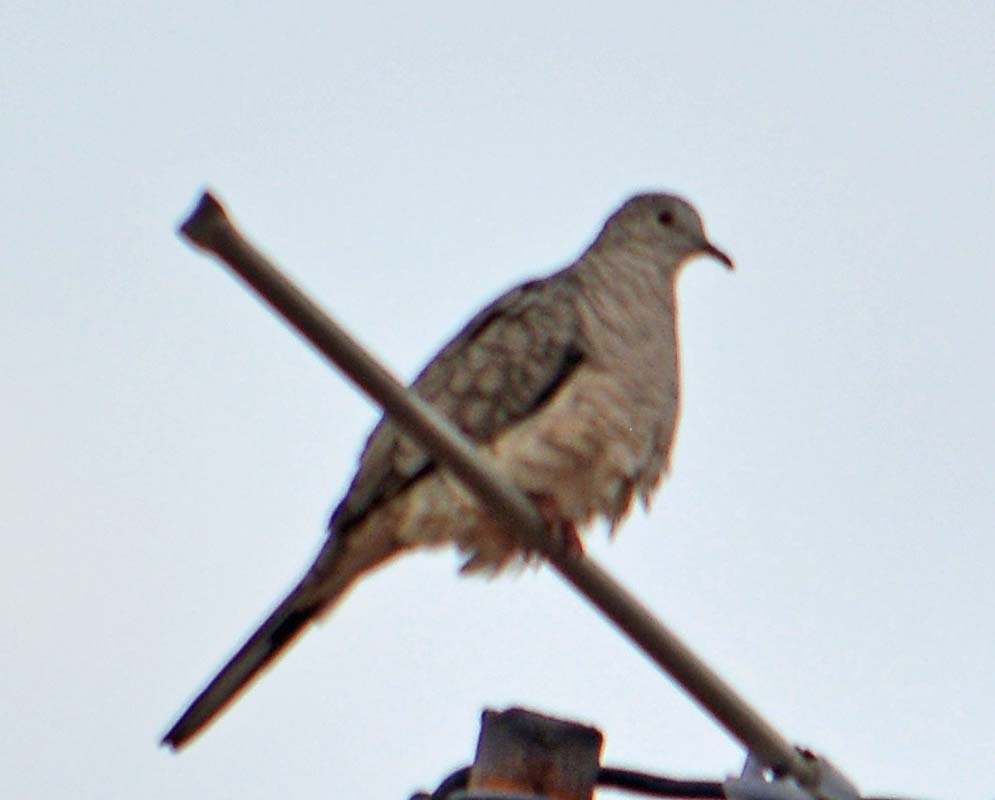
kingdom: Animalia
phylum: Chordata
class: Aves
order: Columbiformes
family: Columbidae
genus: Columbina
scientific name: Columbina inca
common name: Inca dove
